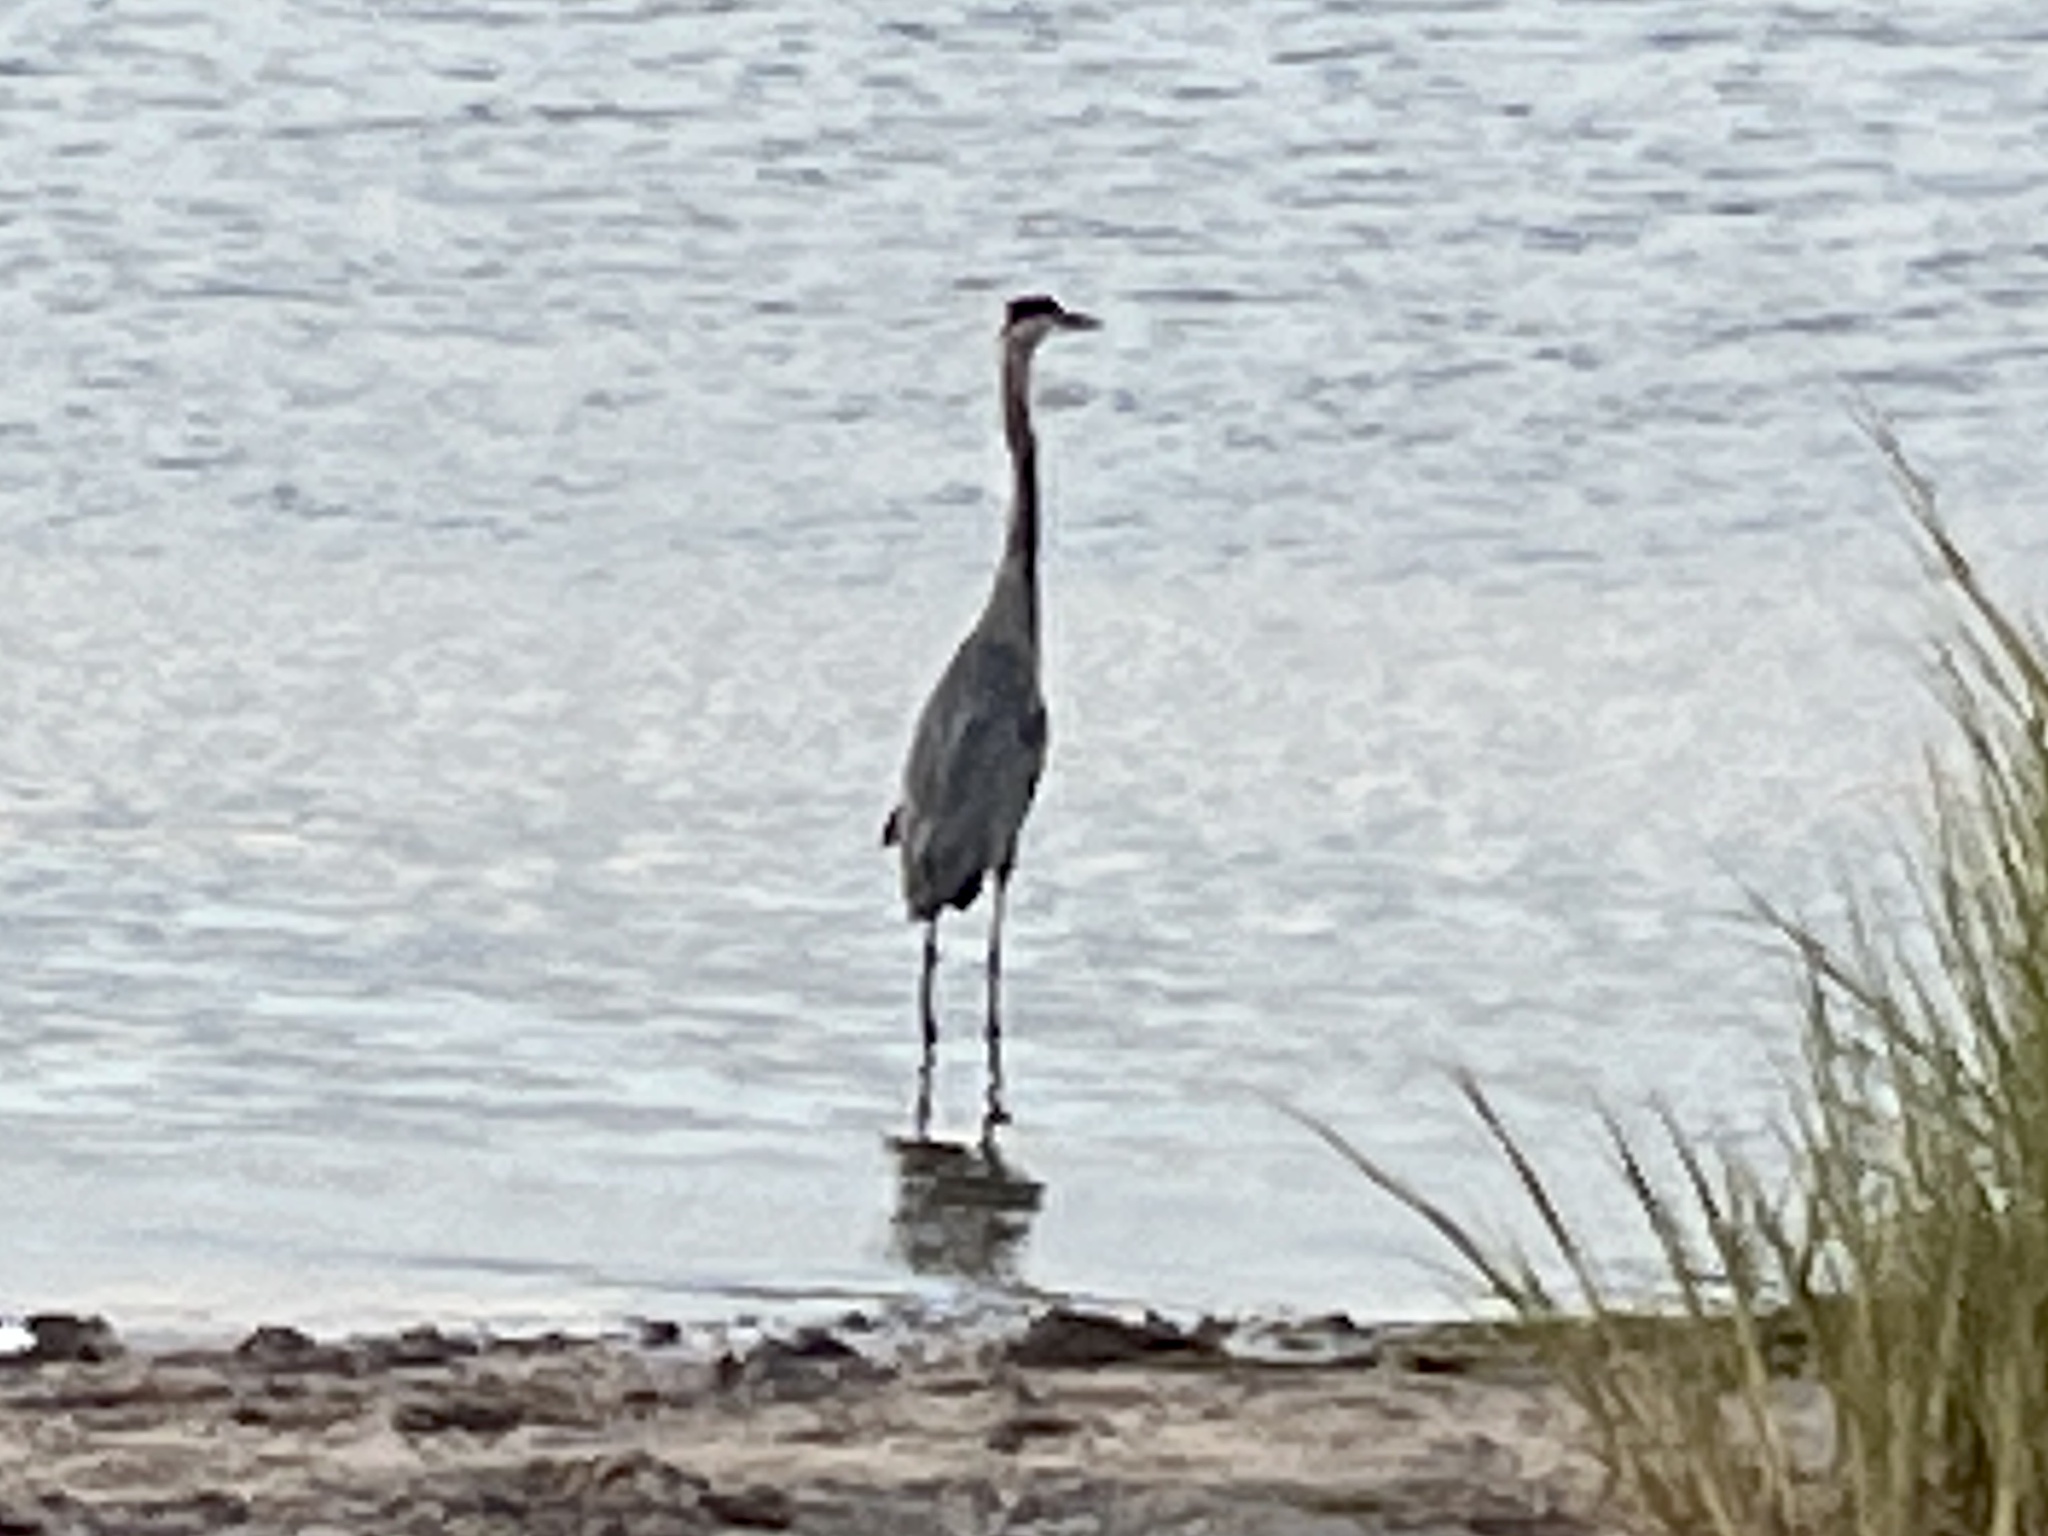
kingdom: Animalia
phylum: Chordata
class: Aves
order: Pelecaniformes
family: Ardeidae
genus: Ardea
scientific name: Ardea herodias
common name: Great blue heron
